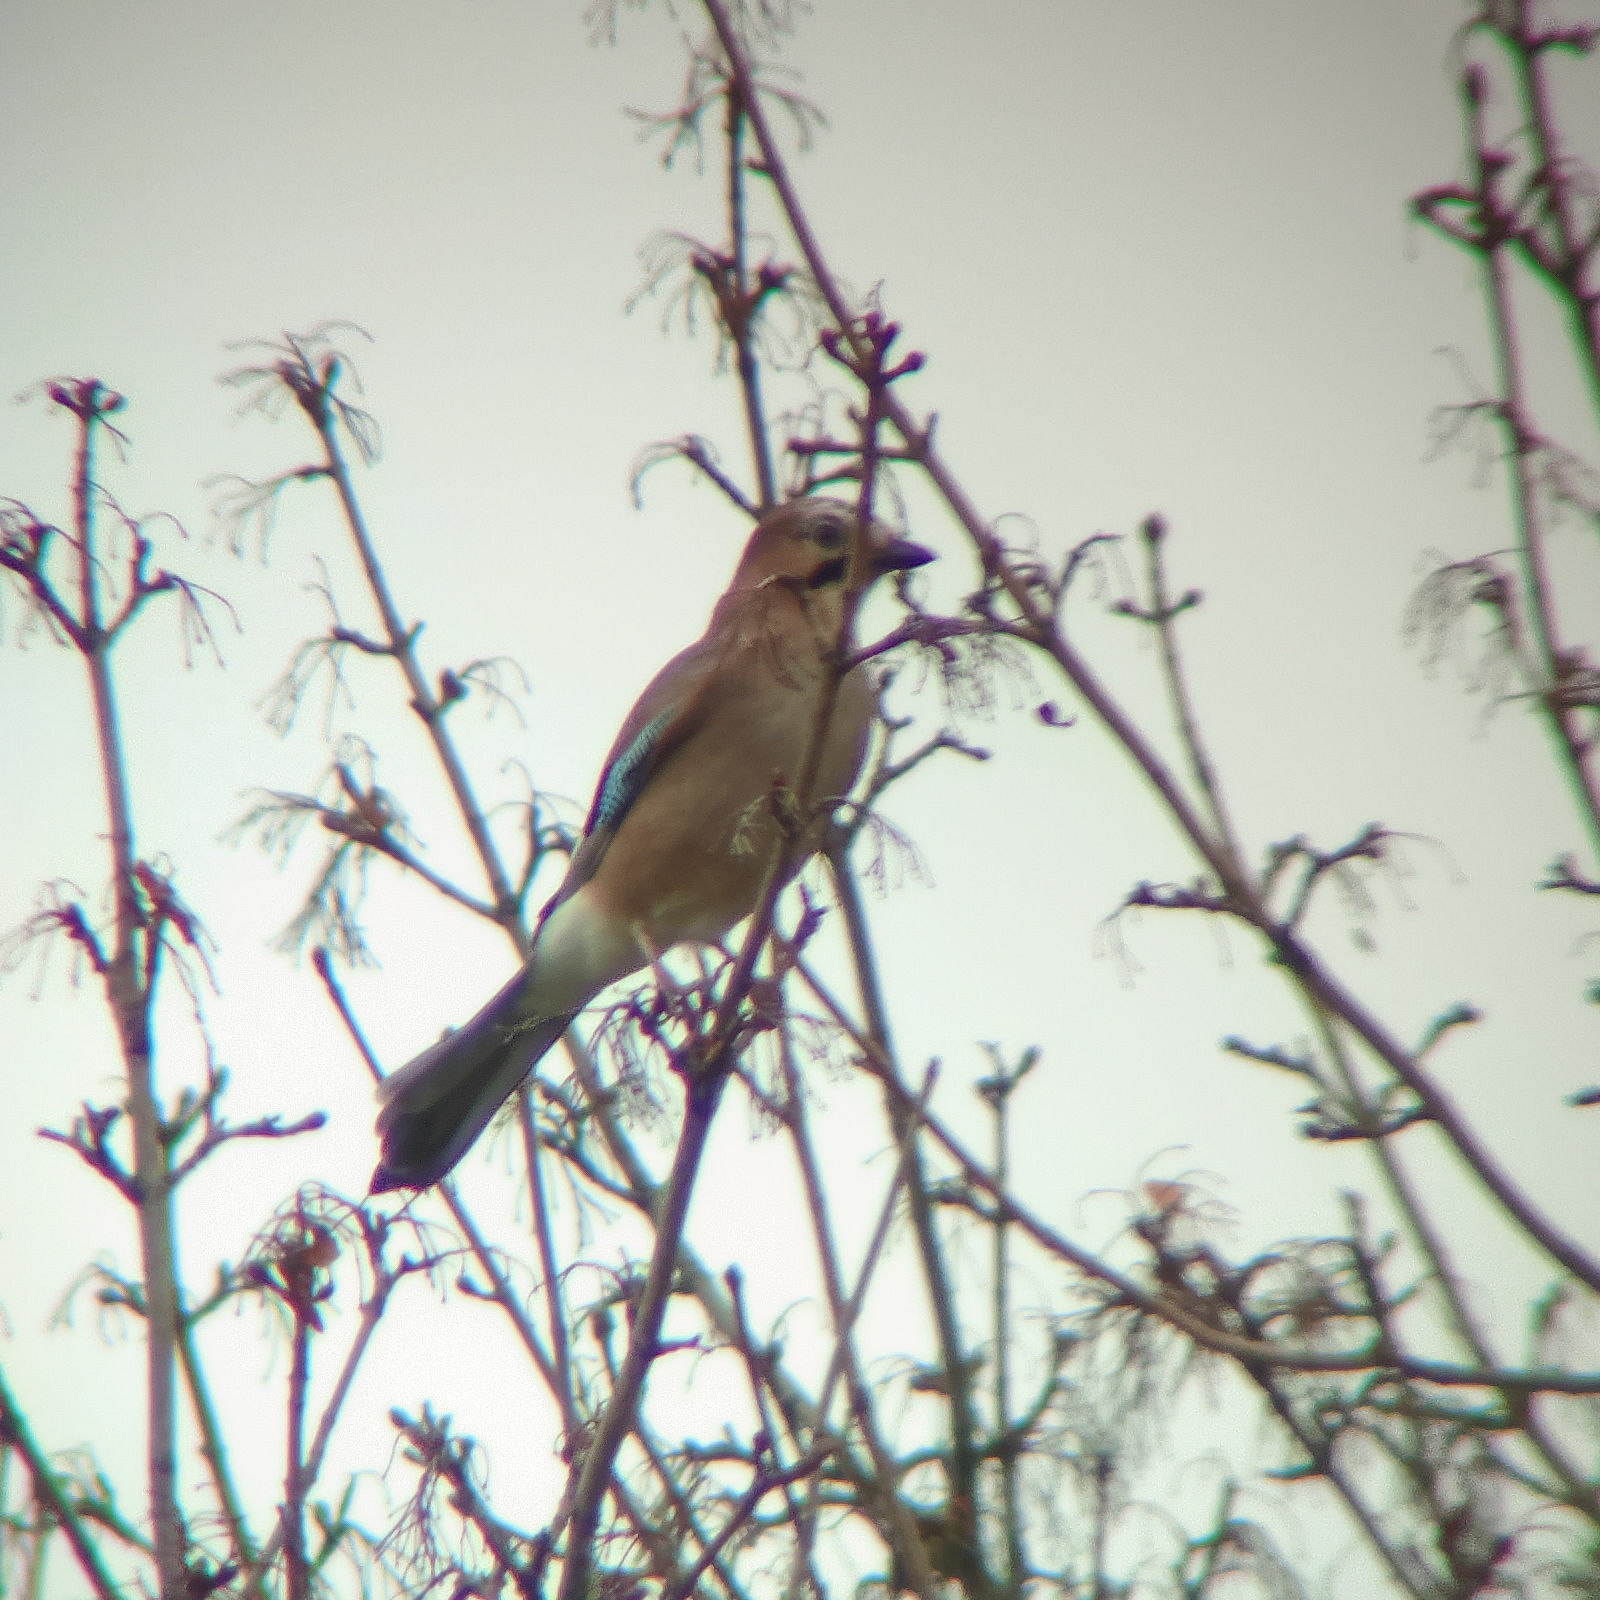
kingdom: Animalia
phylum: Chordata
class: Aves
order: Passeriformes
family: Corvidae
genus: Garrulus
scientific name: Garrulus glandarius
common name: Eurasian jay
